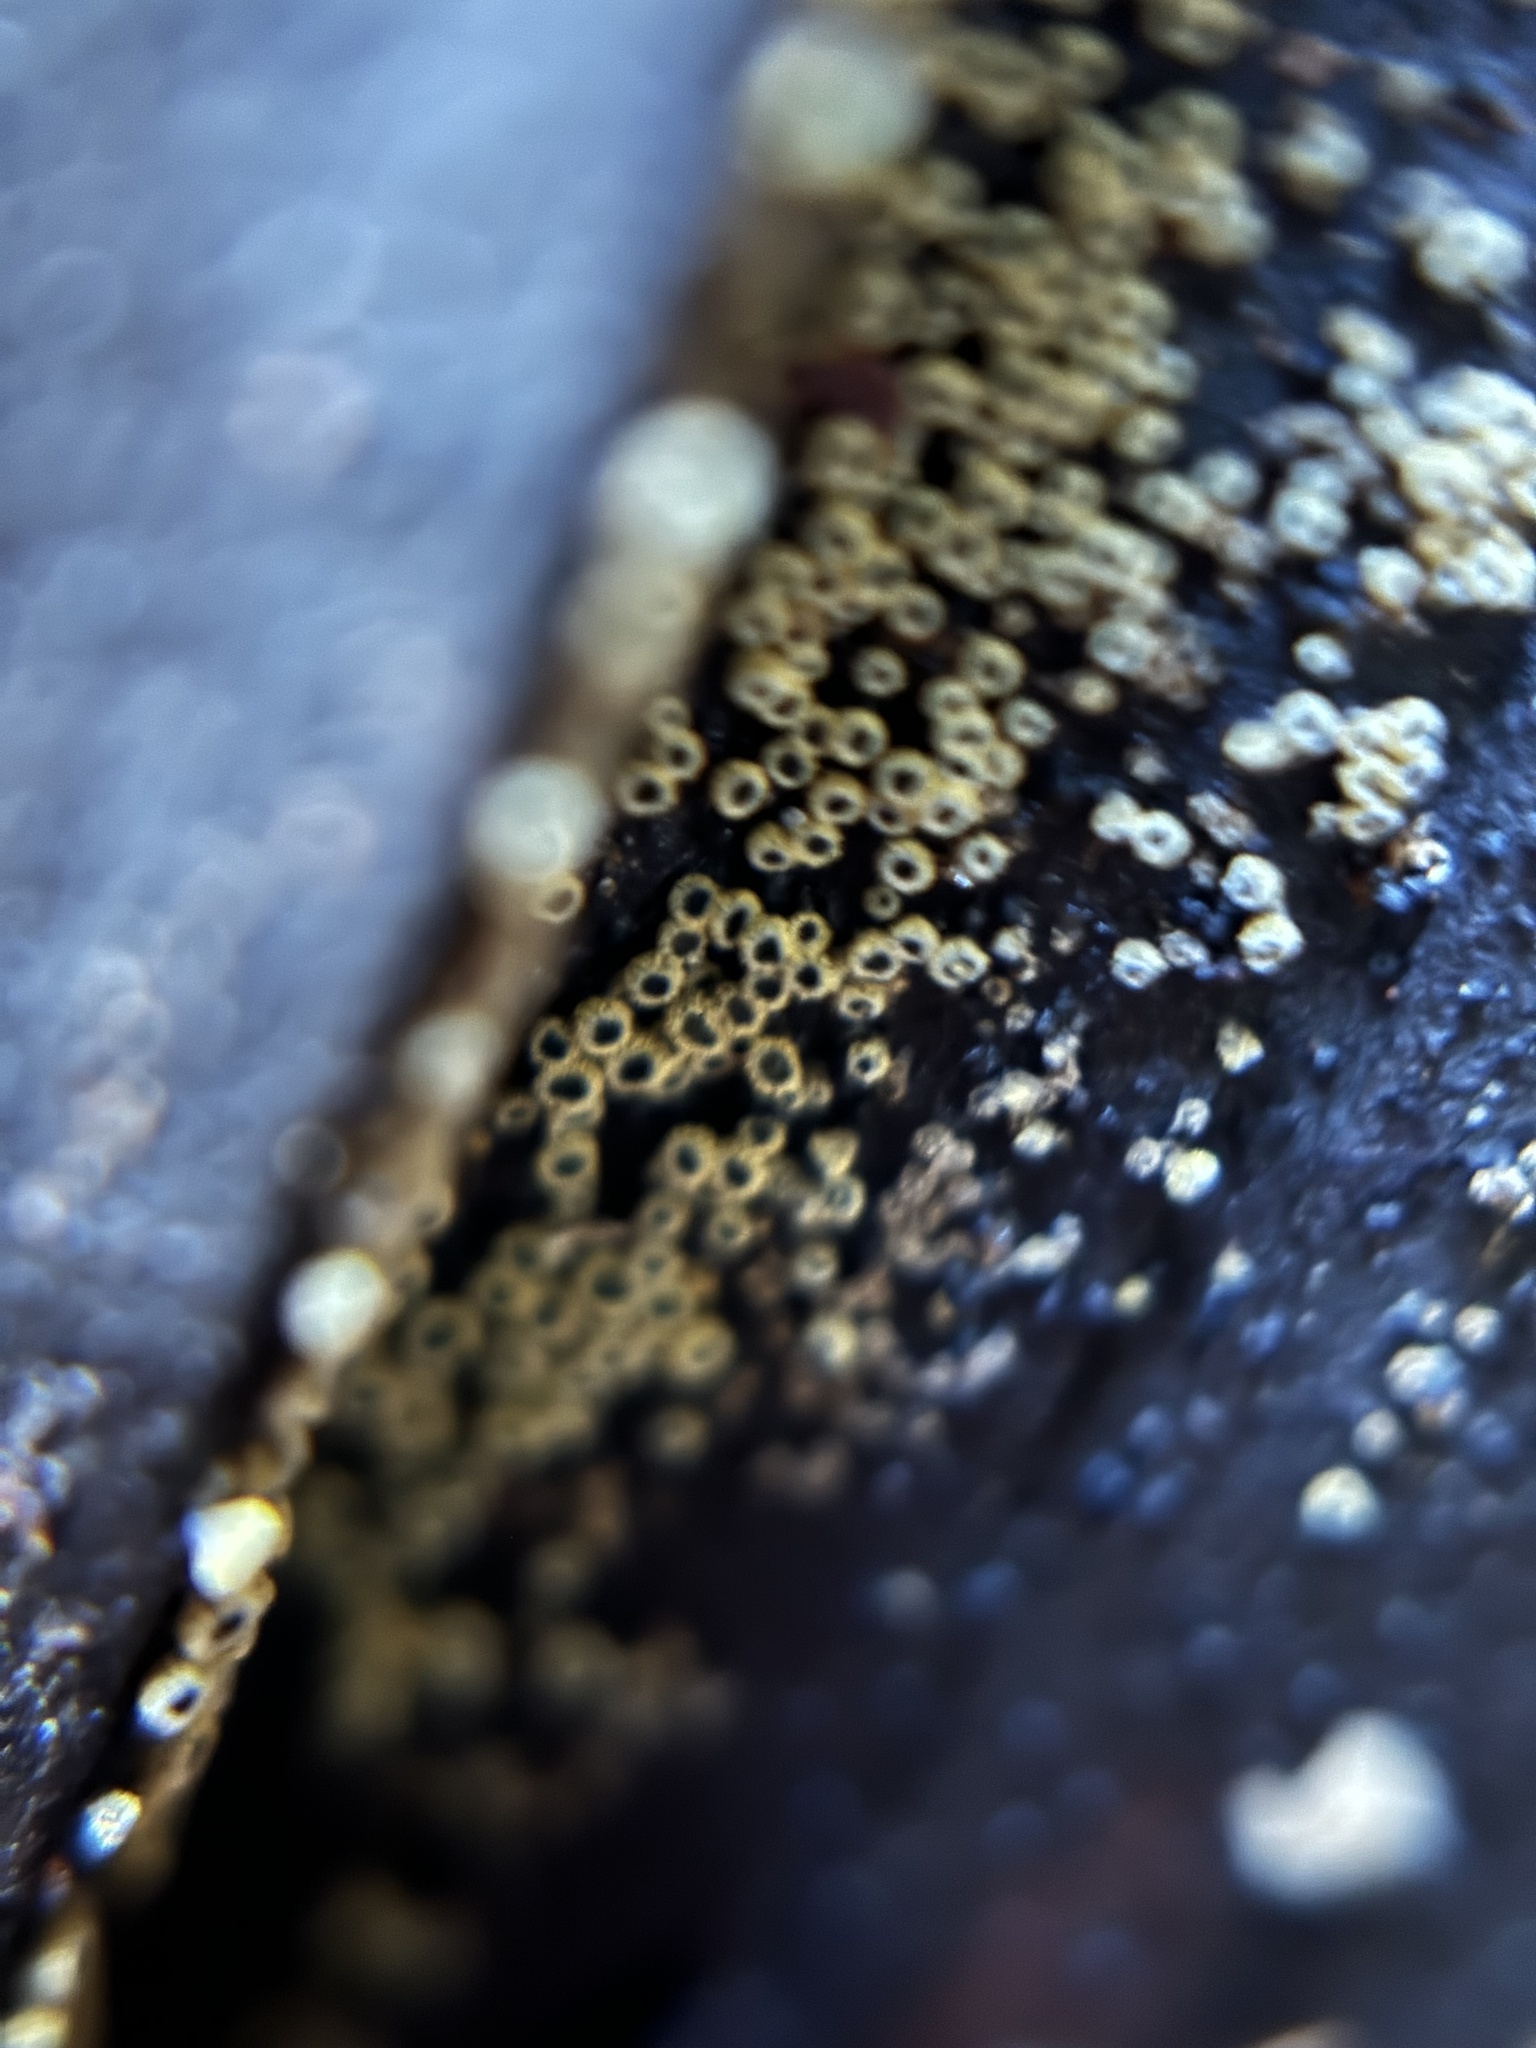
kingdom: Fungi
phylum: Ascomycota
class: Leotiomycetes
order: Helotiales
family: Lachnaceae
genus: Neodasyscypha
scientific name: Neodasyscypha cerina
